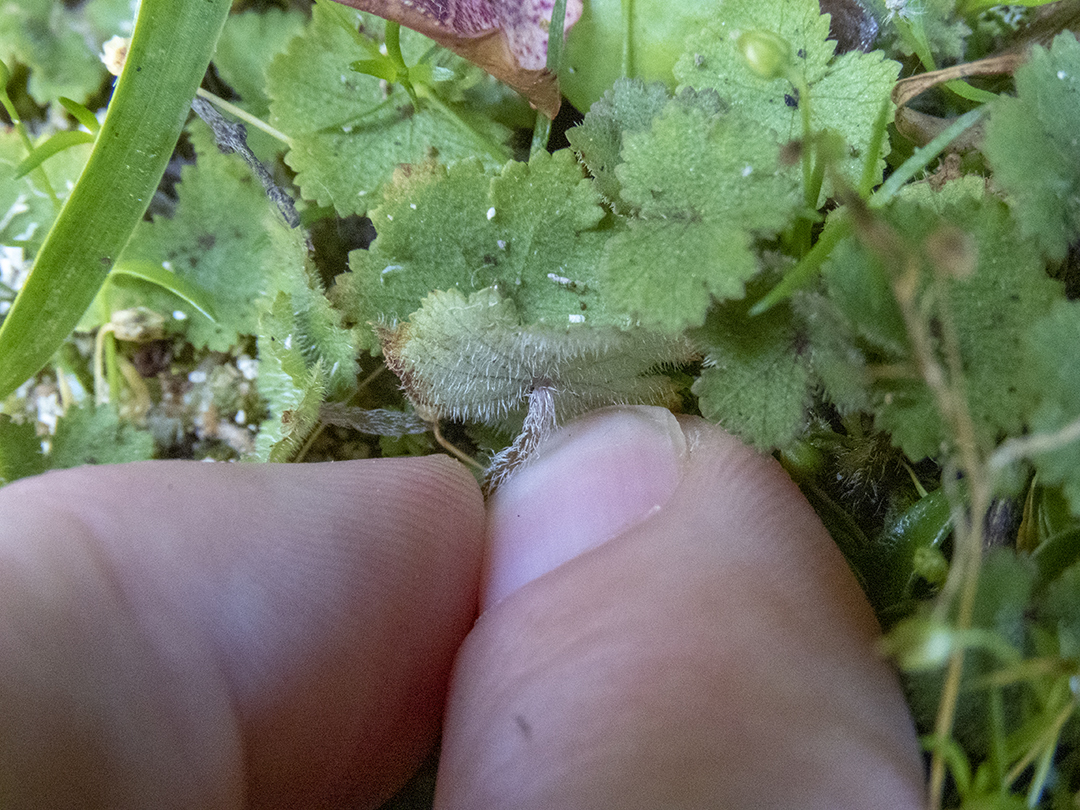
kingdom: Plantae
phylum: Tracheophyta
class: Magnoliopsida
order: Apiales
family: Araliaceae
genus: Hydrocotyle
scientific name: Hydrocotyle moschata
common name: Hairy pennywort
